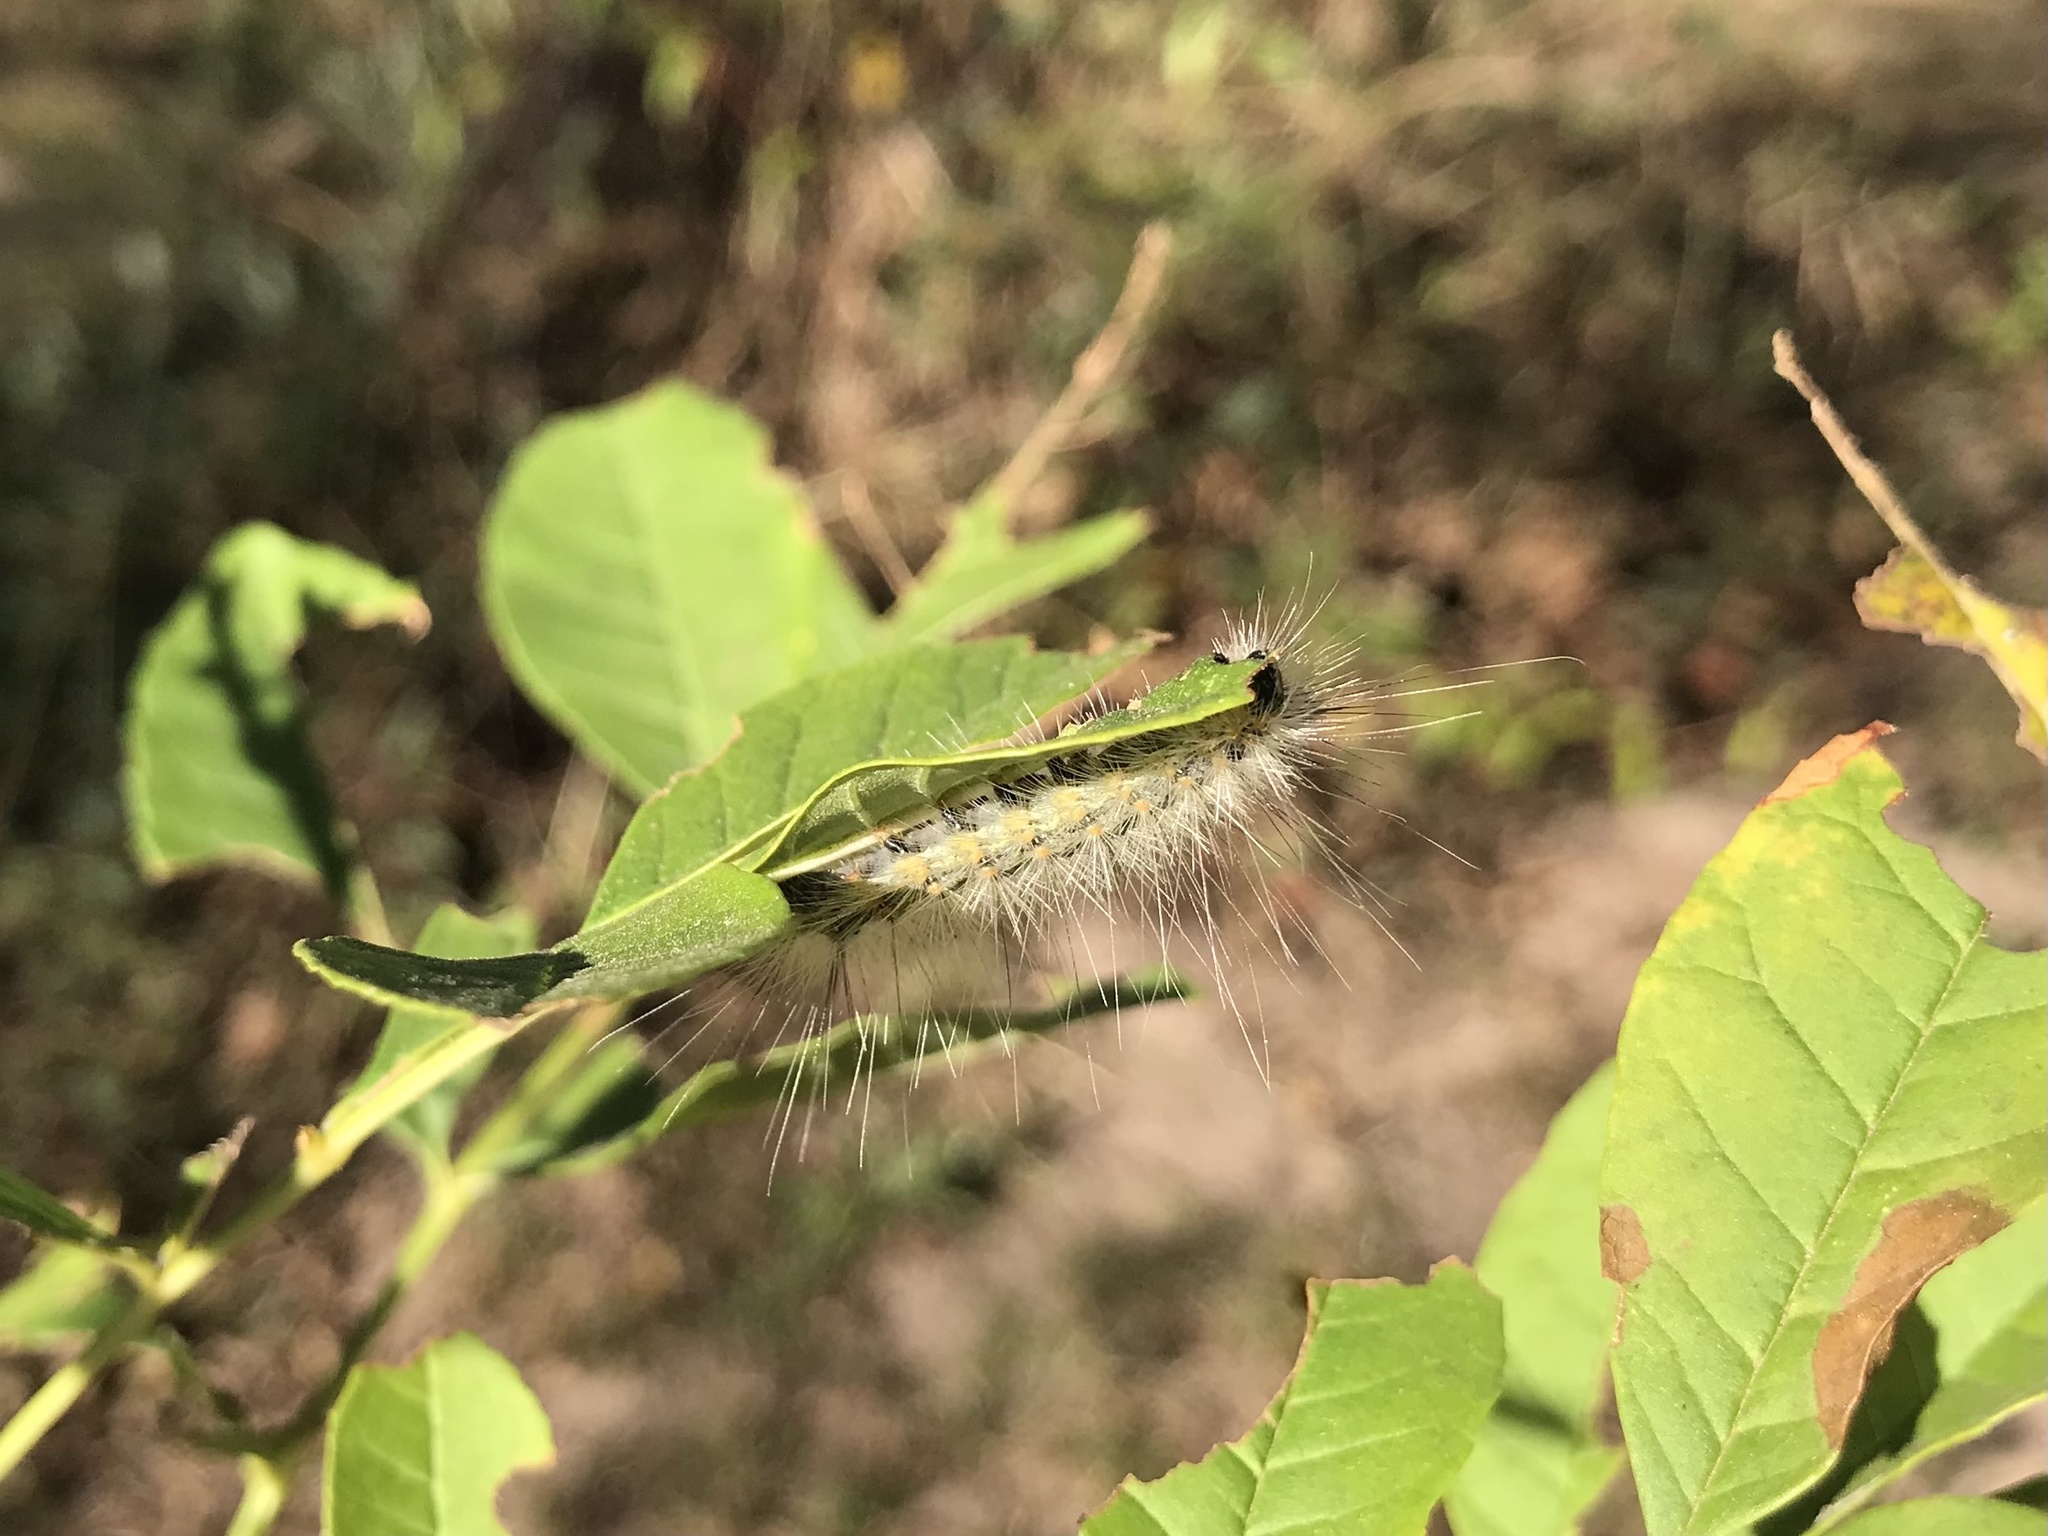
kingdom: Animalia
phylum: Arthropoda
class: Insecta
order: Lepidoptera
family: Erebidae
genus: Hyphantria
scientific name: Hyphantria cunea
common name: American white moth
